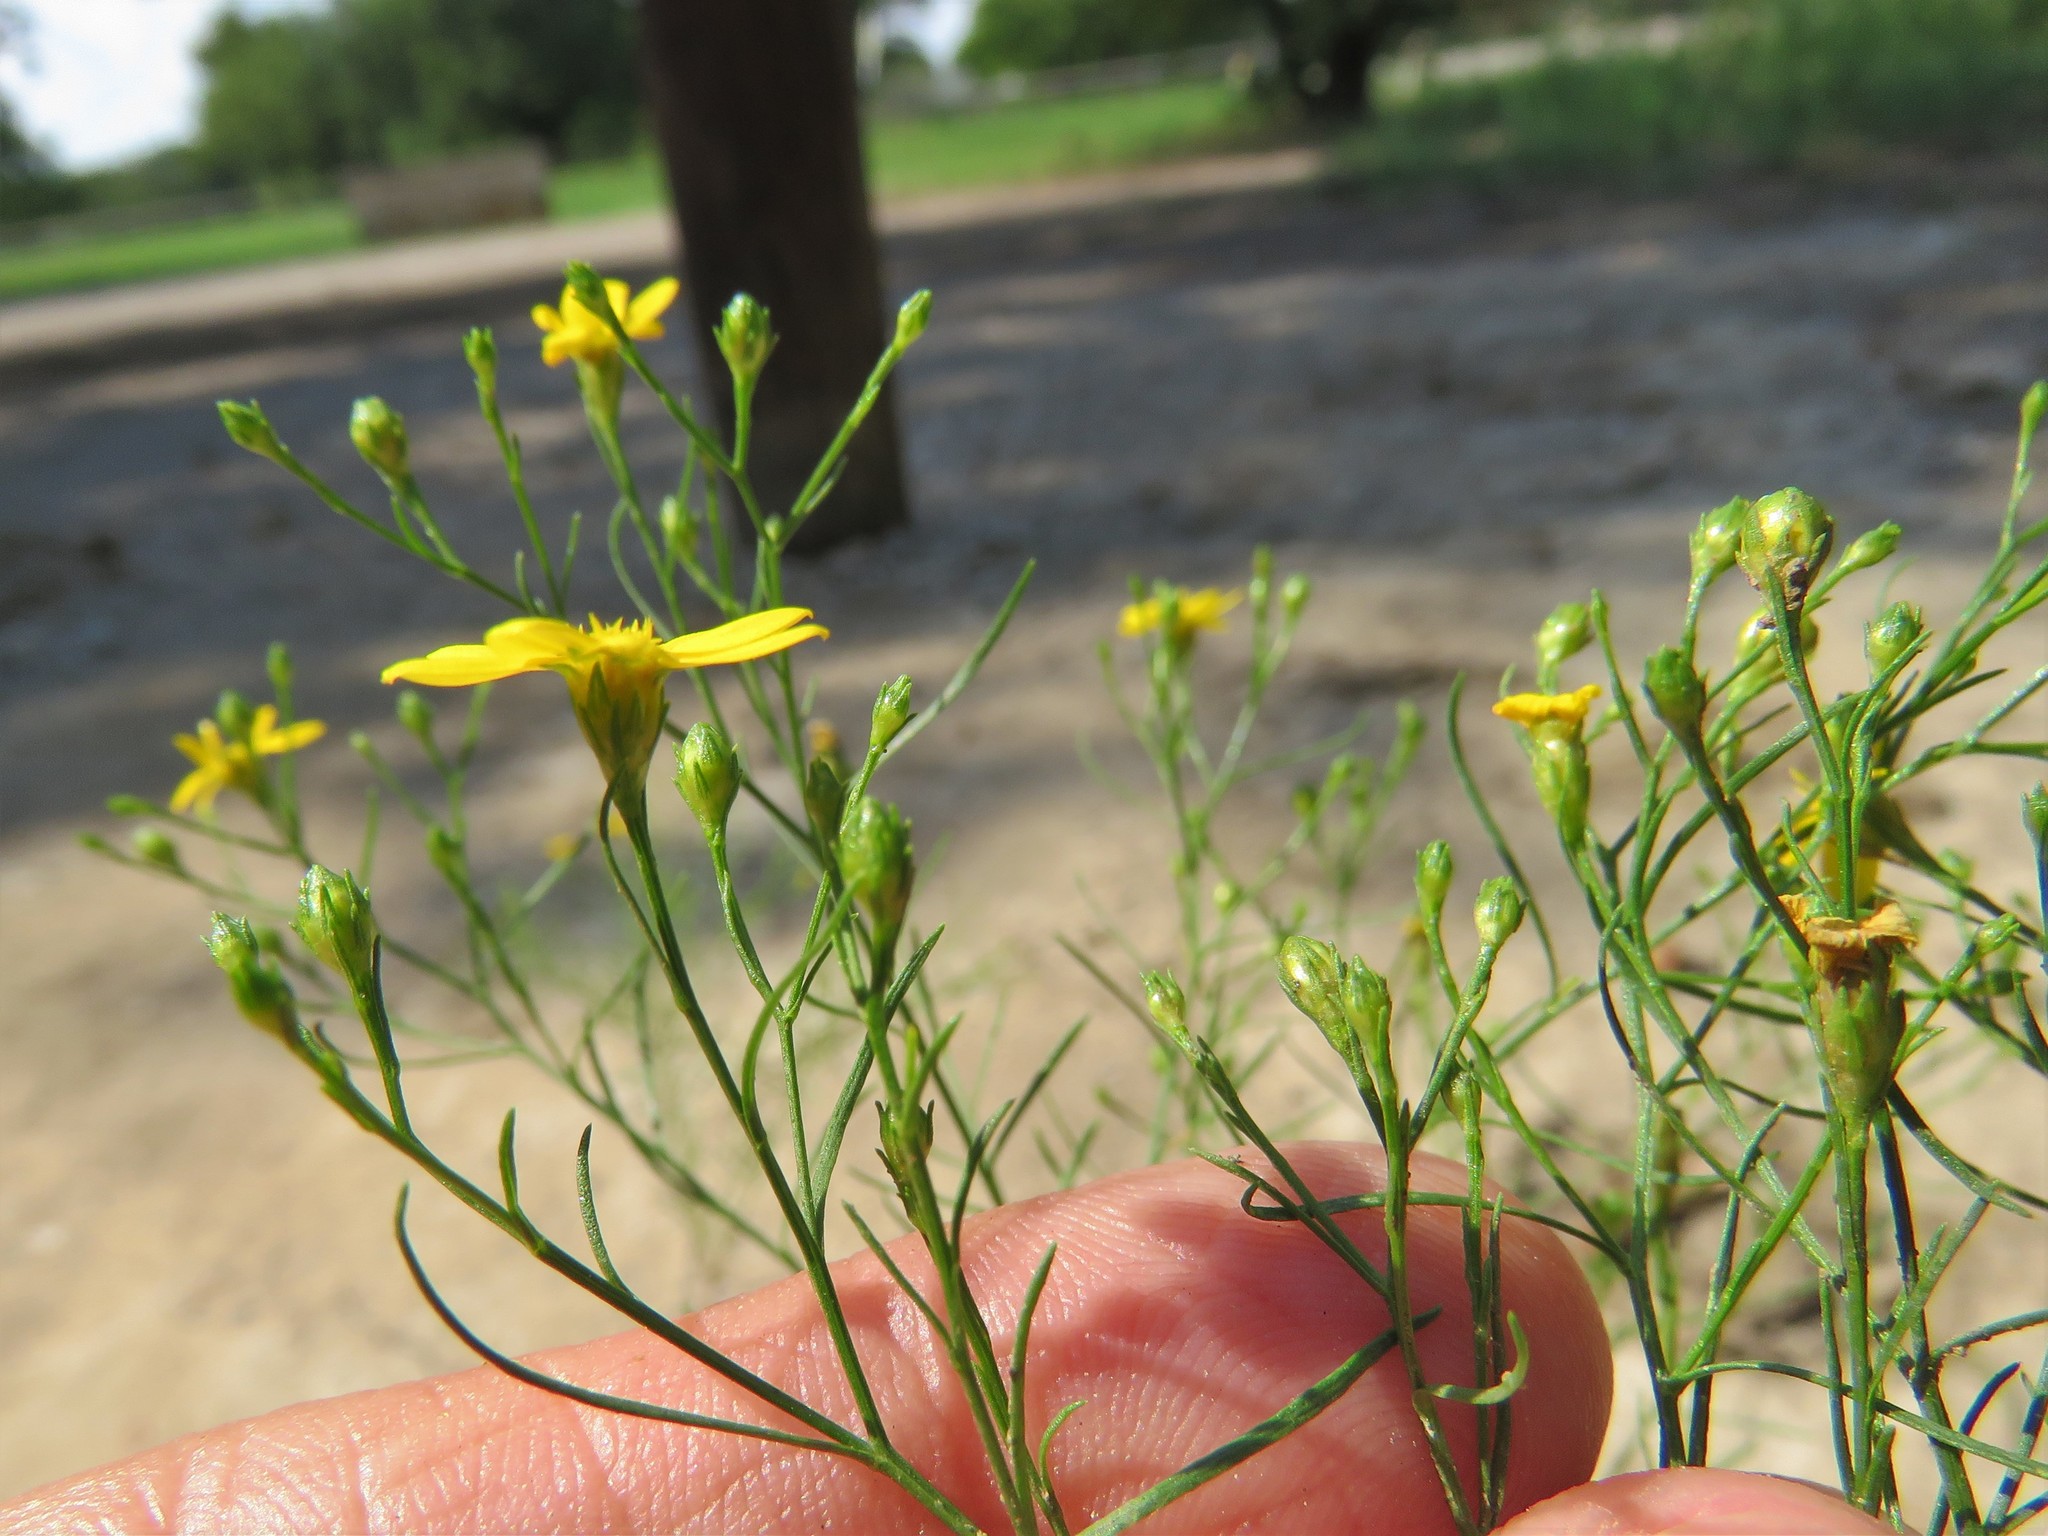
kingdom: Plantae
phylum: Tracheophyta
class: Magnoliopsida
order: Asterales
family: Asteraceae
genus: Amphiachyris
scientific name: Amphiachyris dracunculoides
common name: Broomweed
